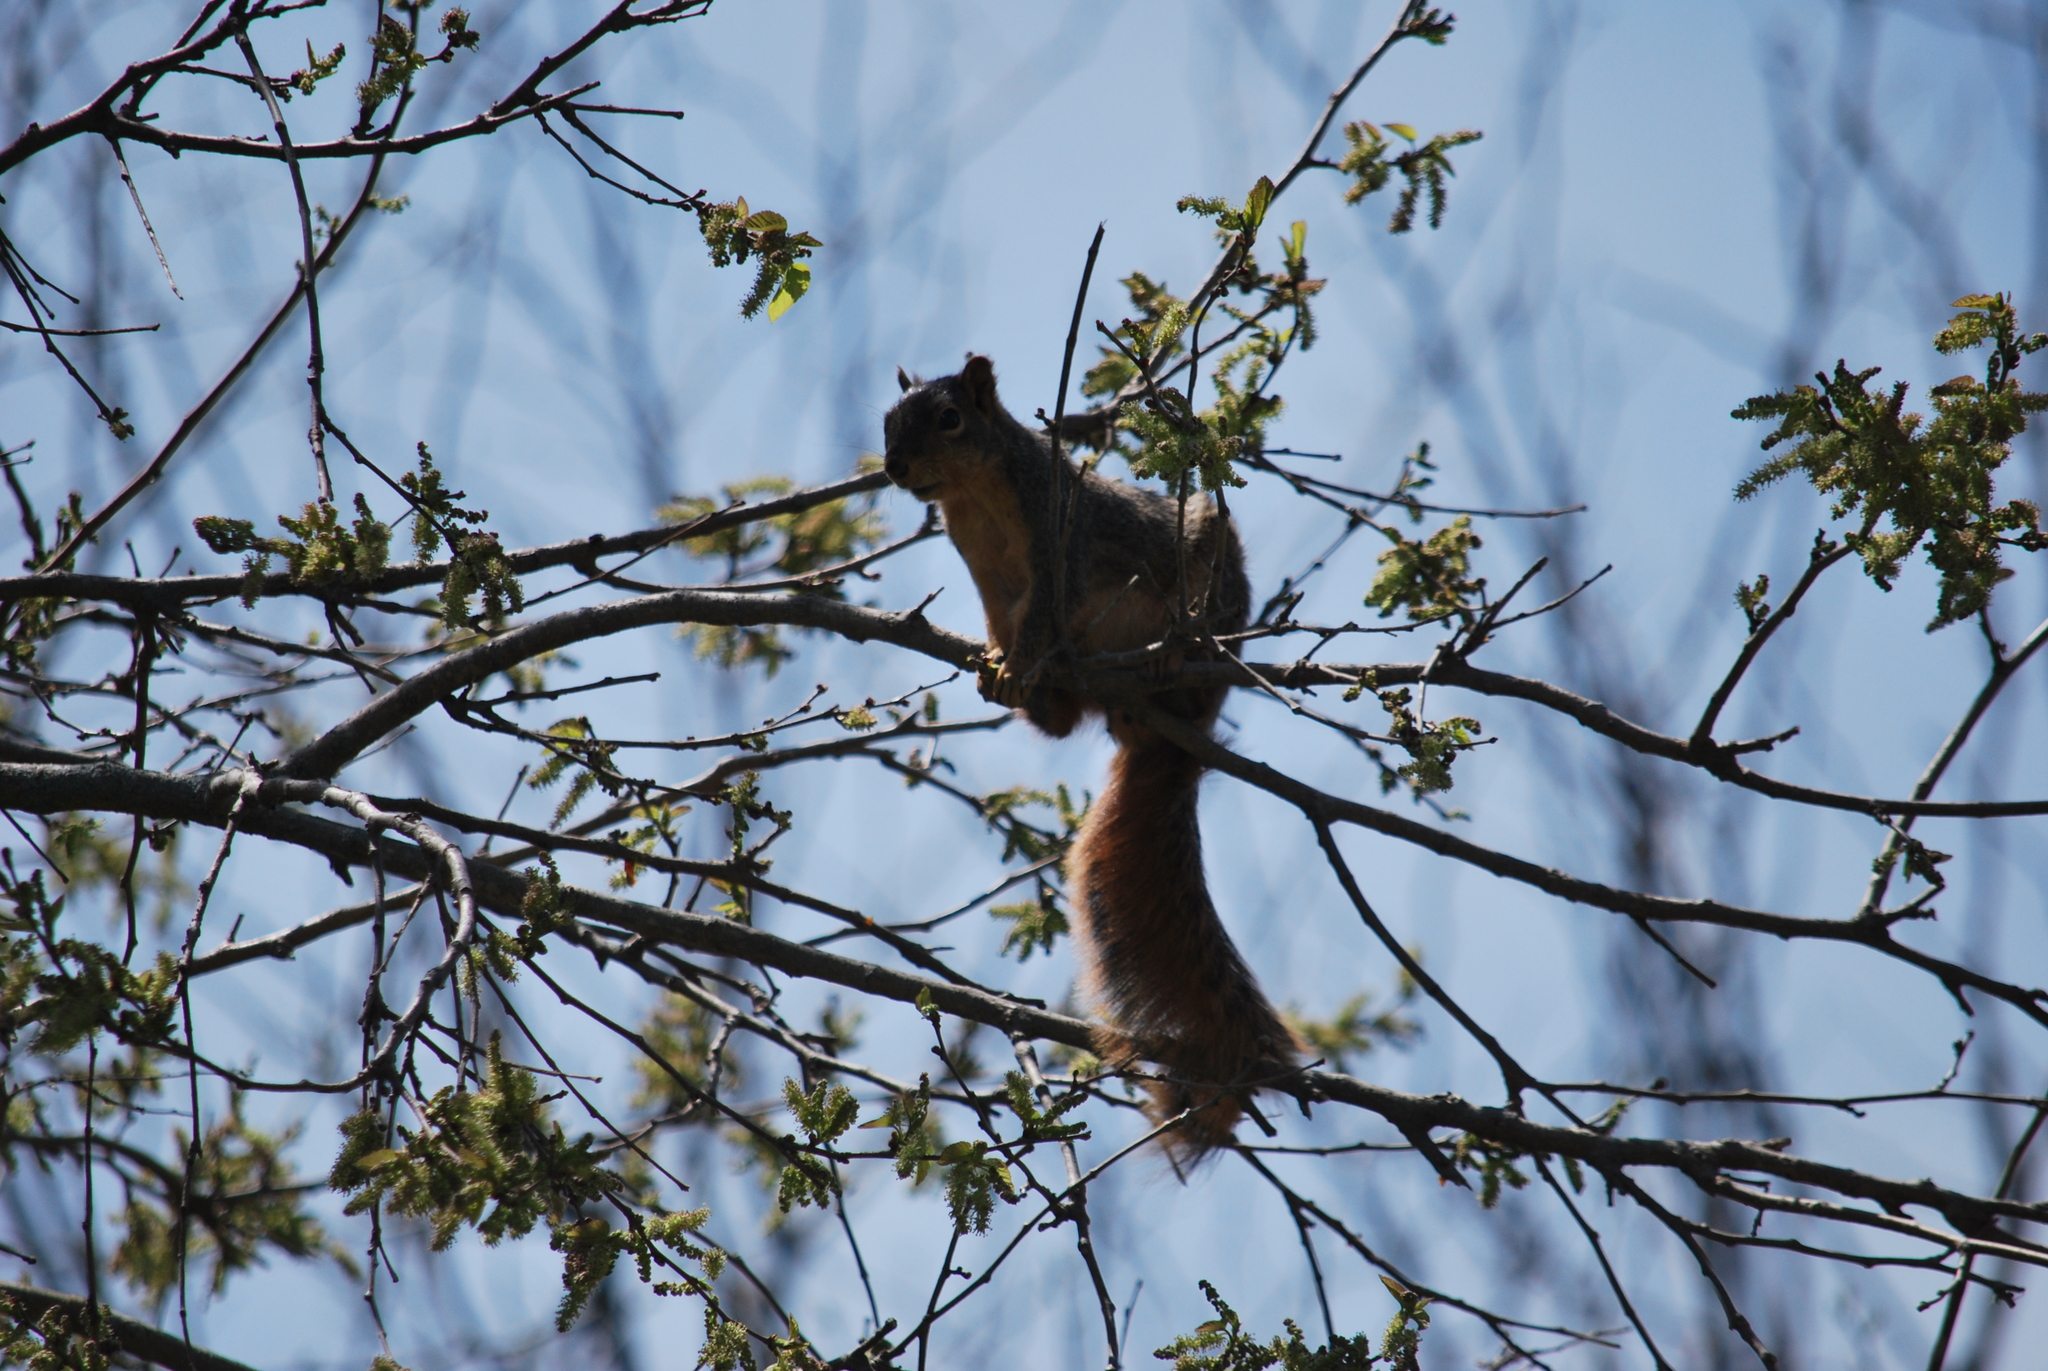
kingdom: Animalia
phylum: Chordata
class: Mammalia
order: Rodentia
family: Sciuridae
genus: Sciurus
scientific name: Sciurus niger
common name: Fox squirrel
